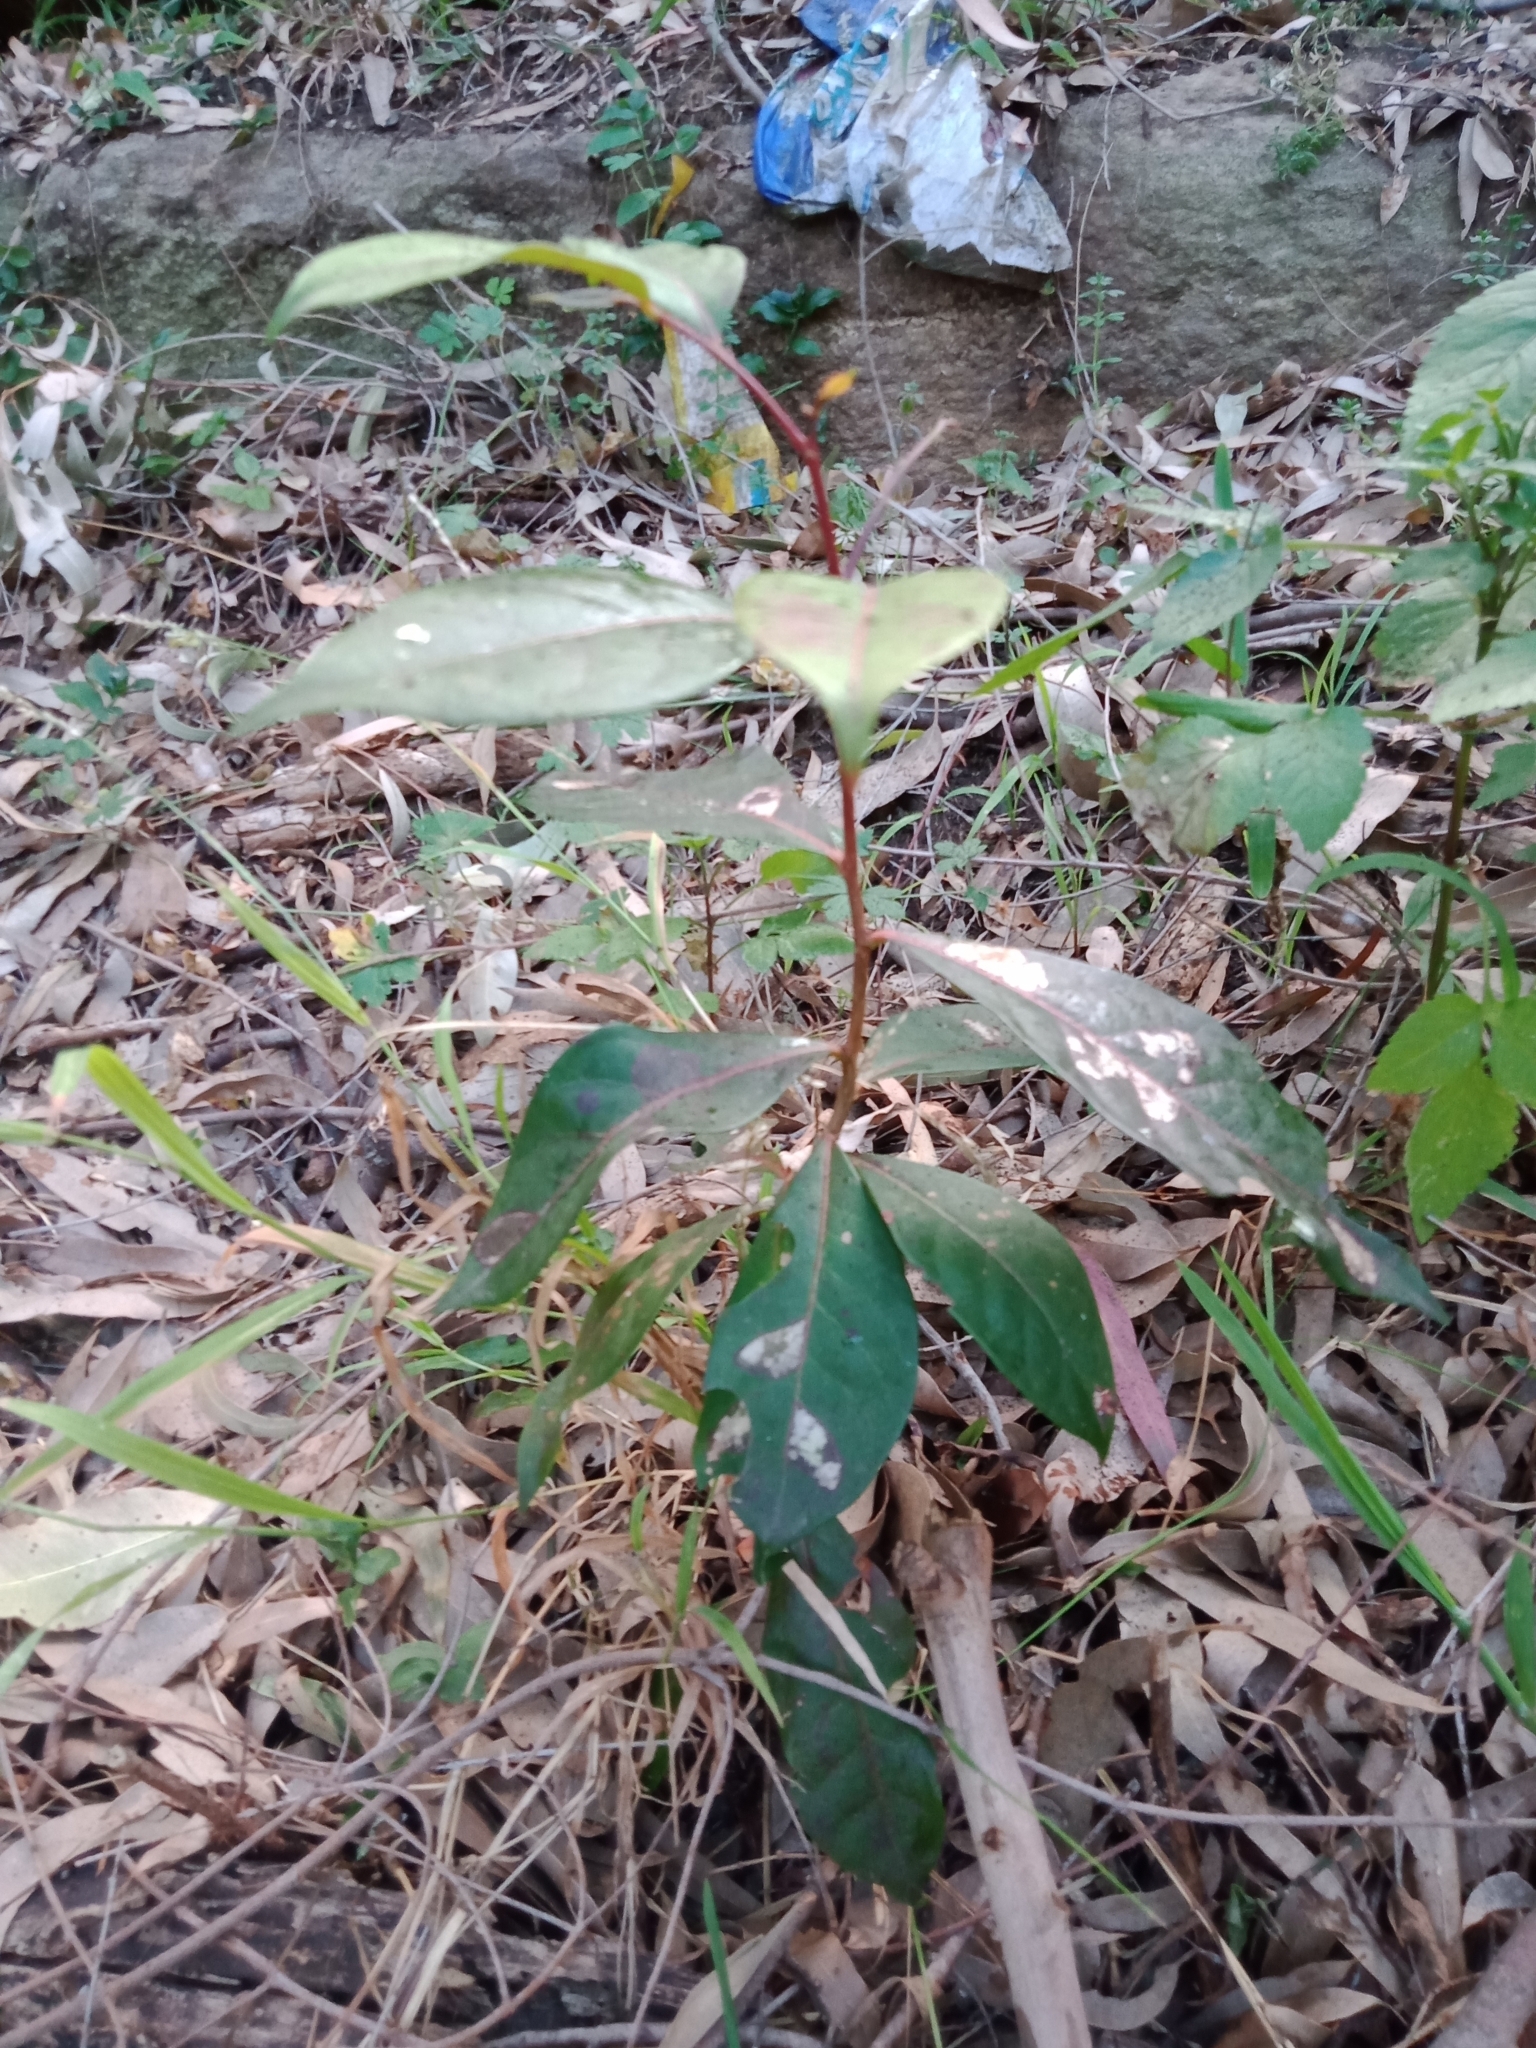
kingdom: Plantae
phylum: Tracheophyta
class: Magnoliopsida
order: Malpighiales
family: Phyllanthaceae
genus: Glochidion
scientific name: Glochidion ferdinandi
